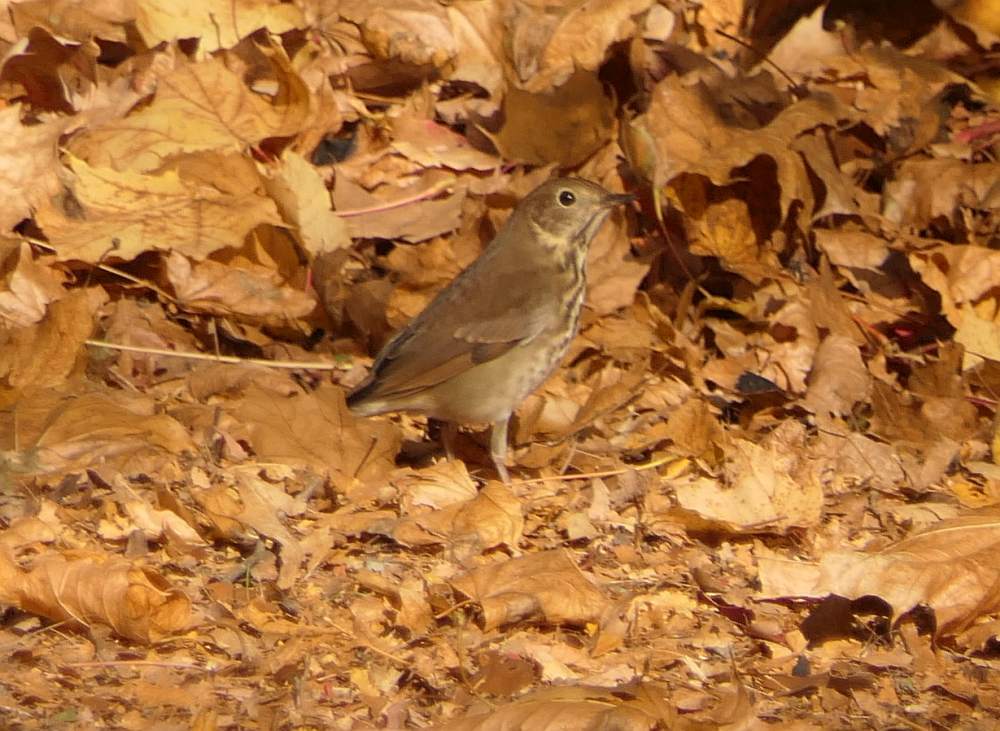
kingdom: Animalia
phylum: Chordata
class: Aves
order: Passeriformes
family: Turdidae
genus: Catharus
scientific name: Catharus guttatus
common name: Hermit thrush
